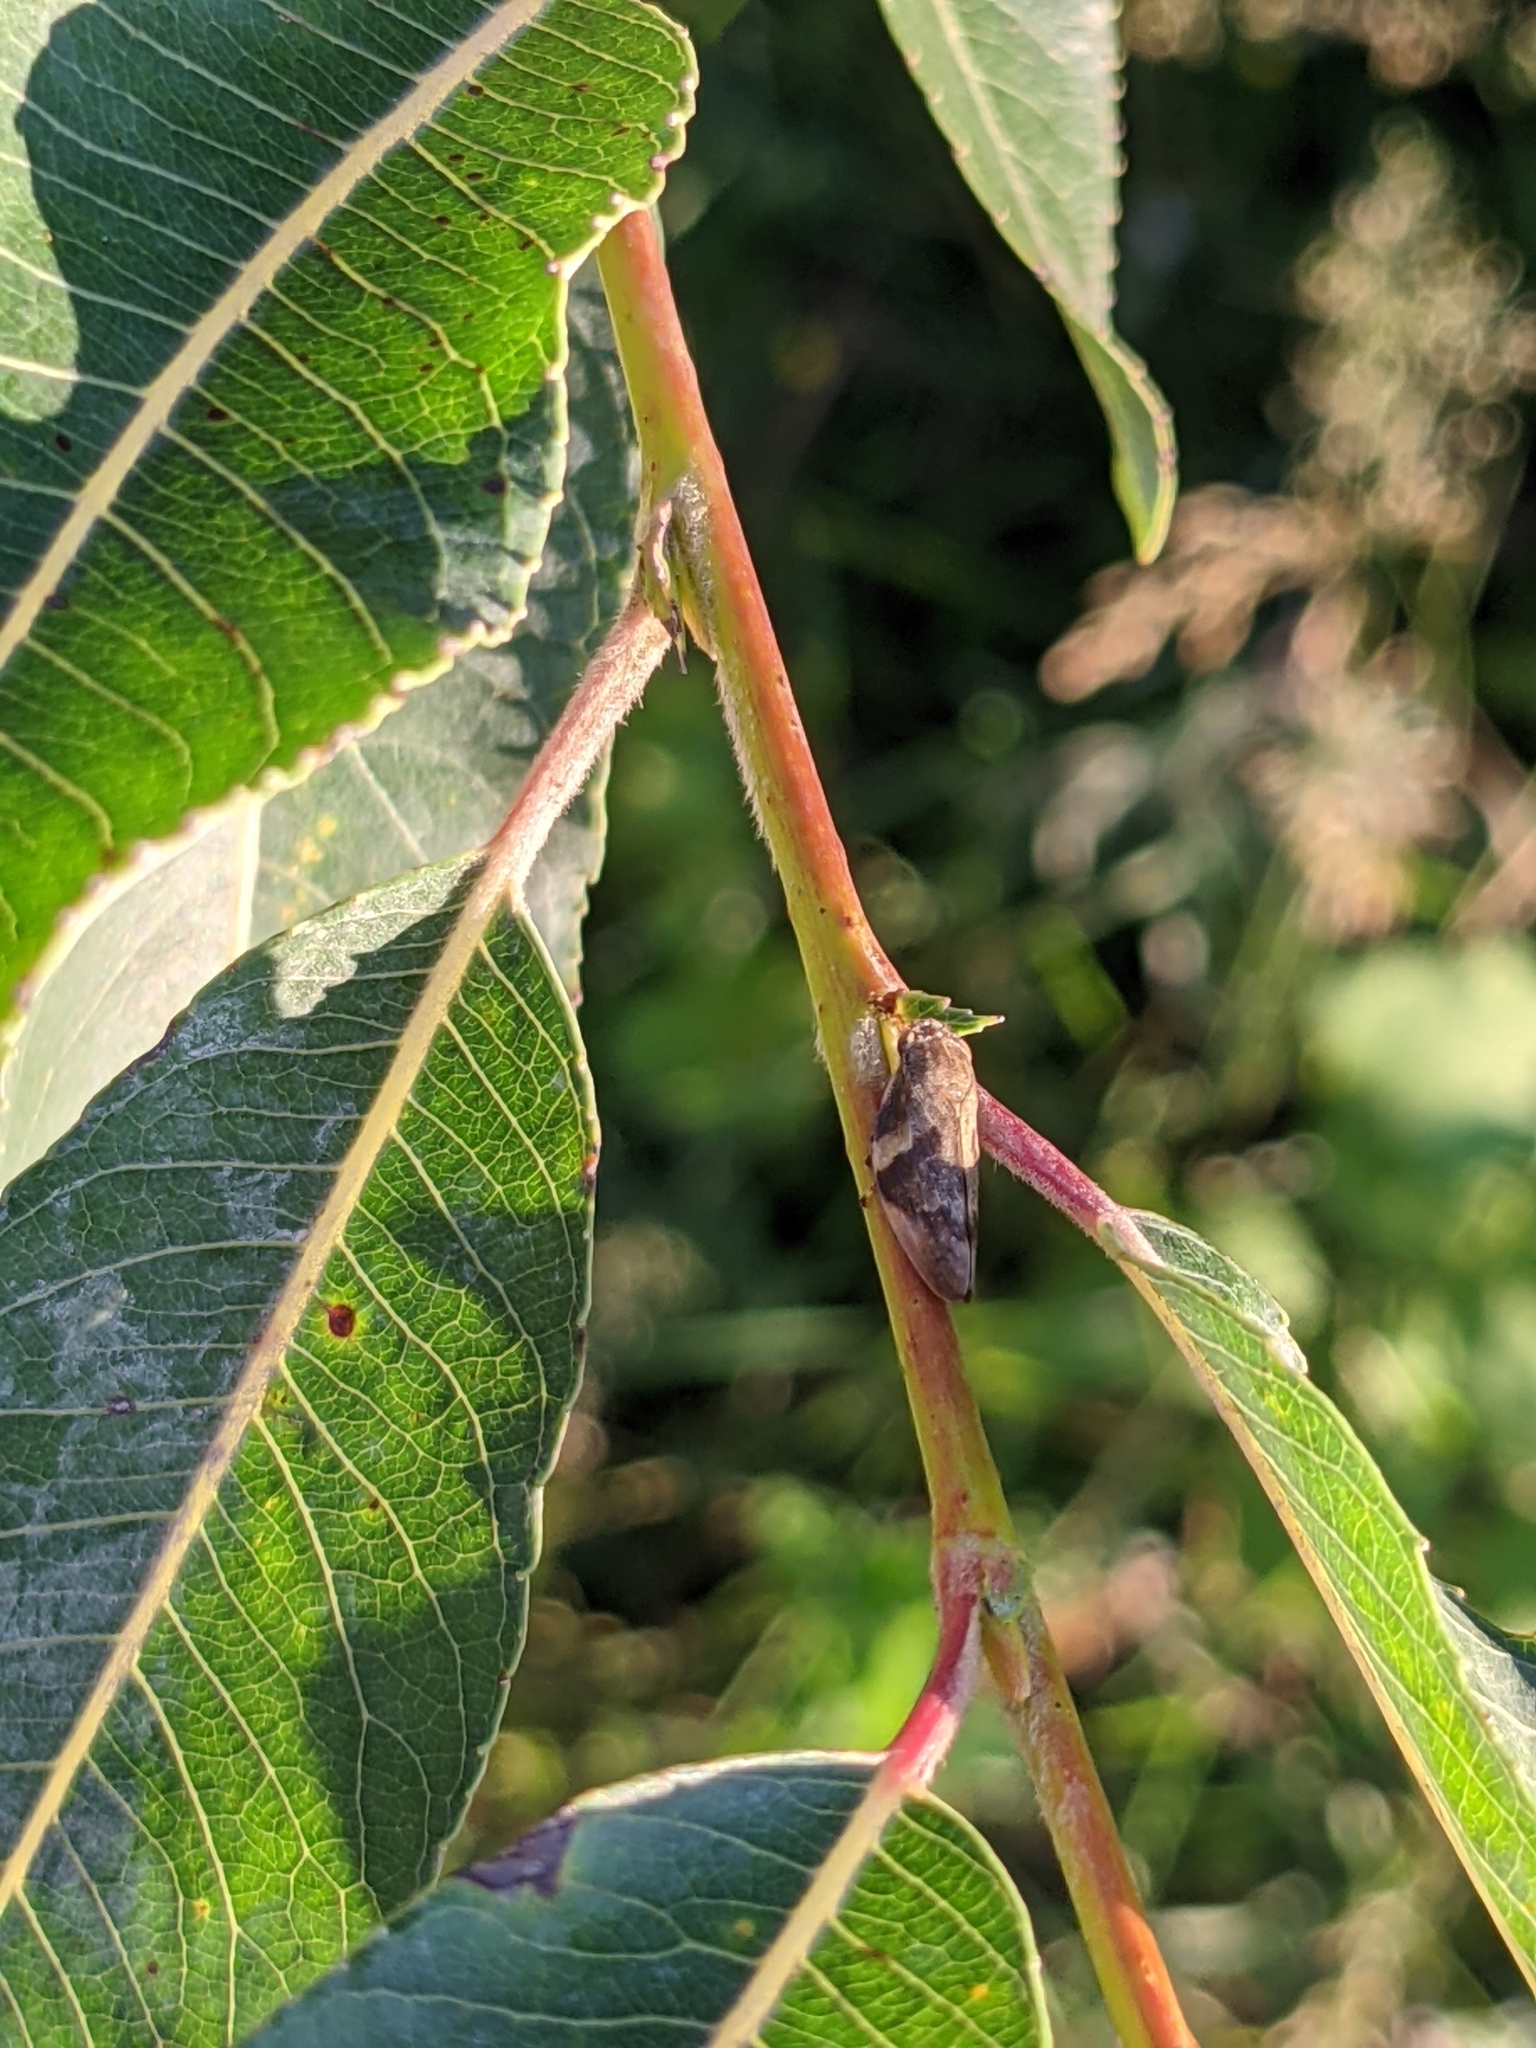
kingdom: Animalia
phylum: Arthropoda
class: Insecta
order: Hemiptera
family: Aphrophoridae
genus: Aphrophora
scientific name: Aphrophora alni
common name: European alder spittlebug
